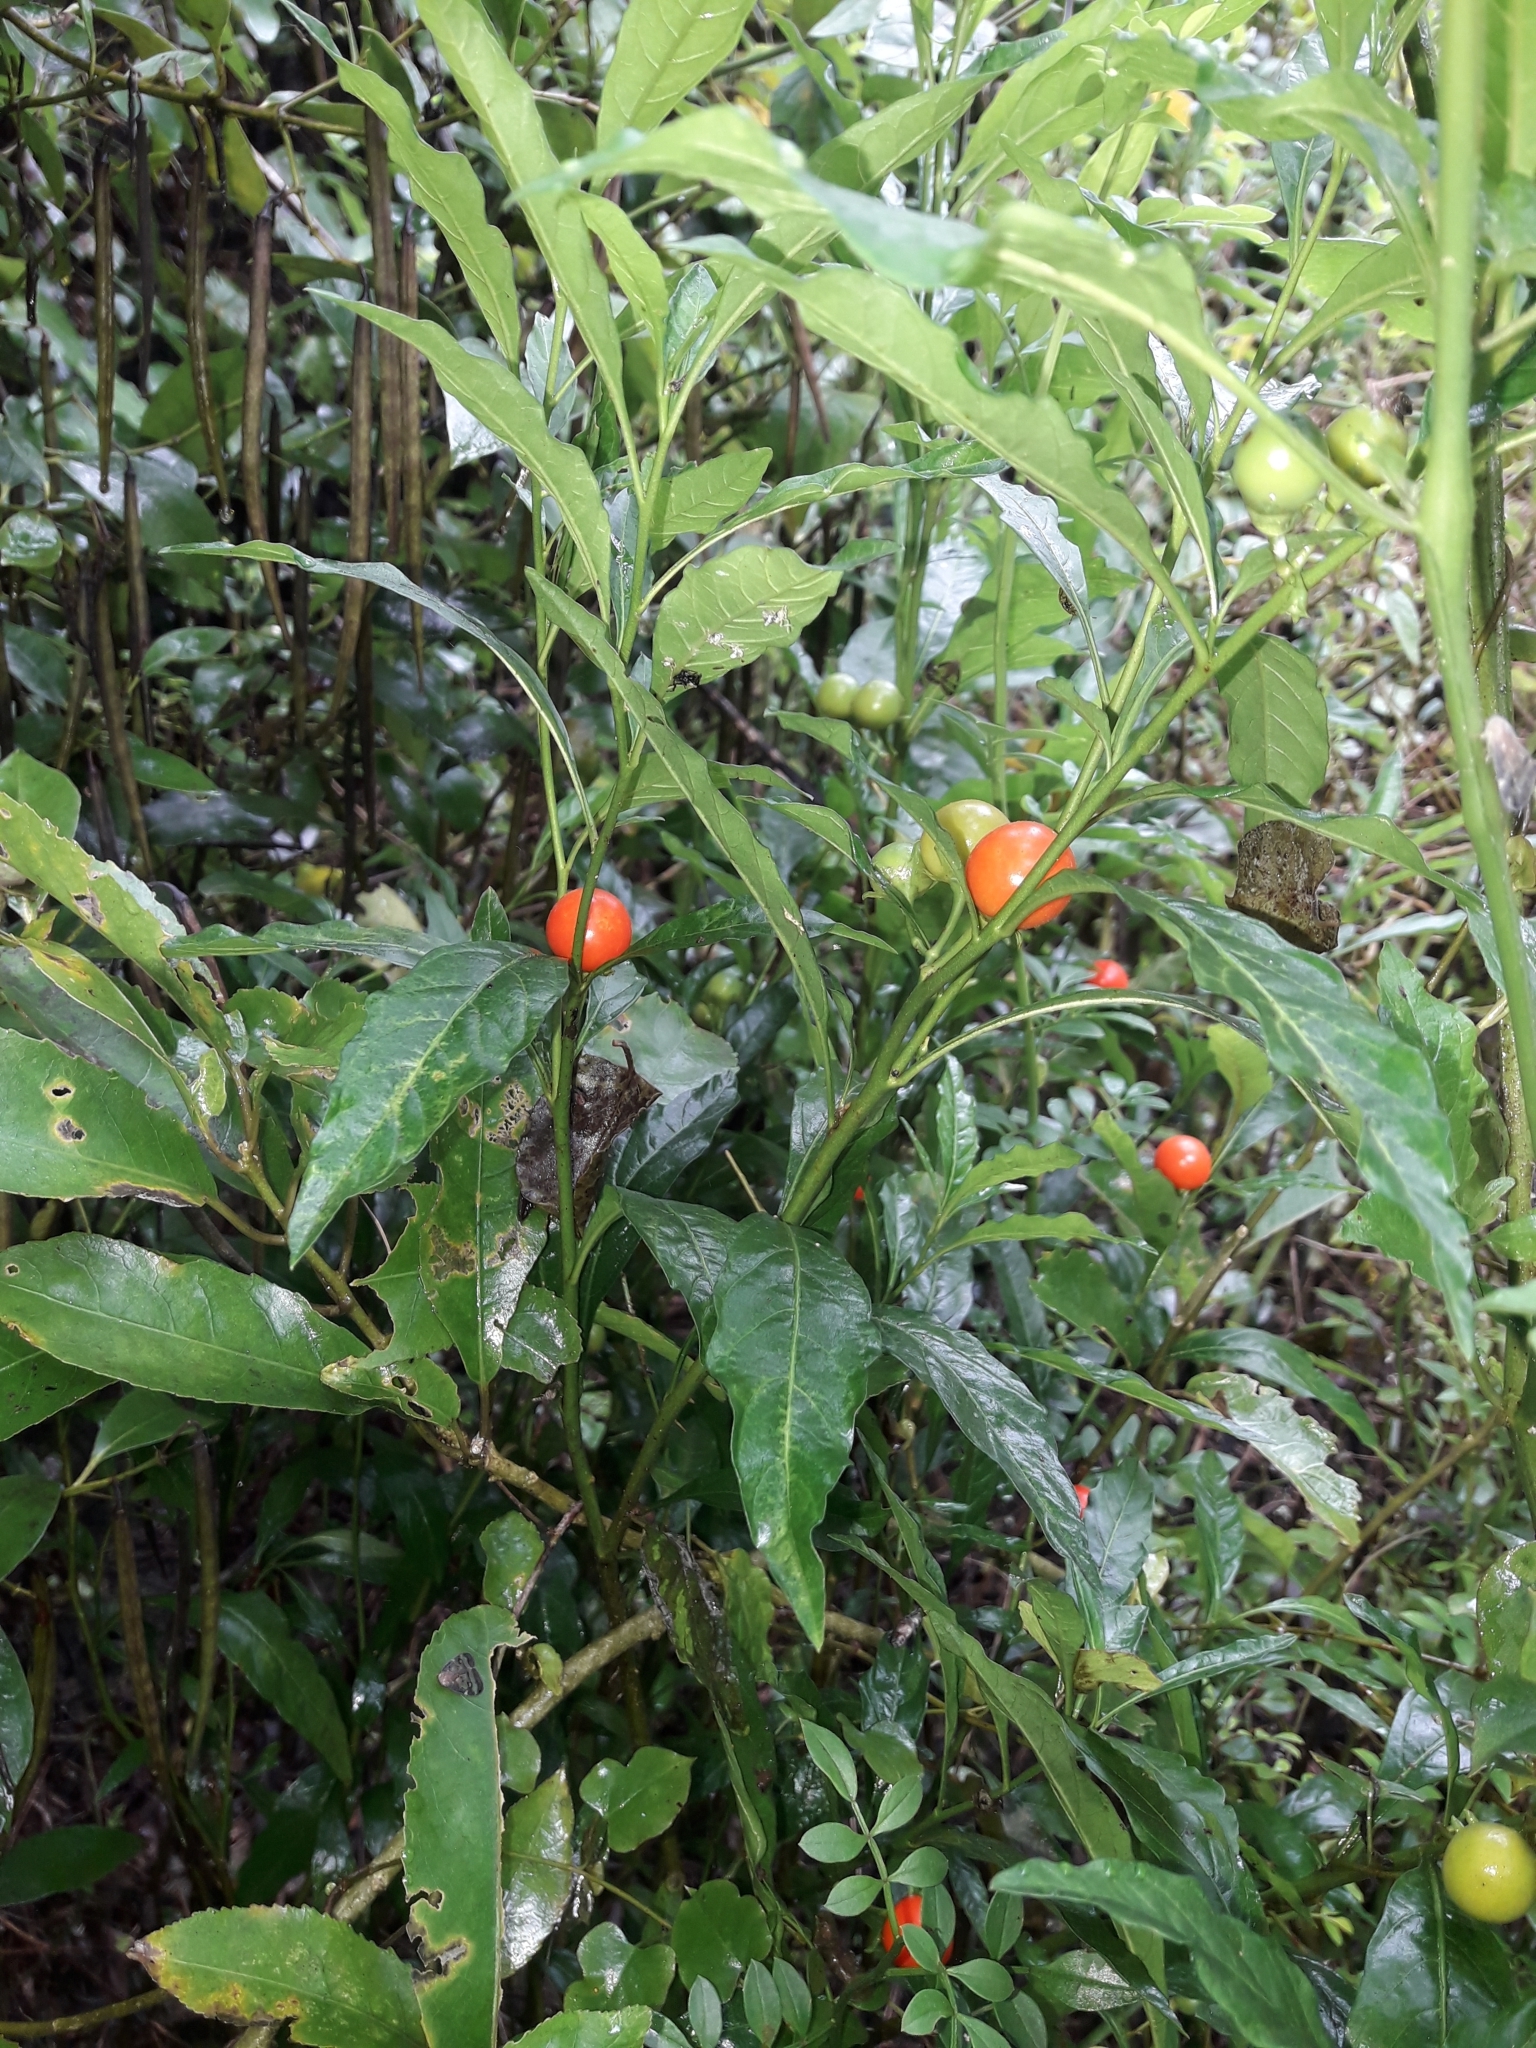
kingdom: Plantae
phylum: Tracheophyta
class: Magnoliopsida
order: Solanales
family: Solanaceae
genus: Solanum
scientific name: Solanum pseudocapsicum
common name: Jerusalem cherry
